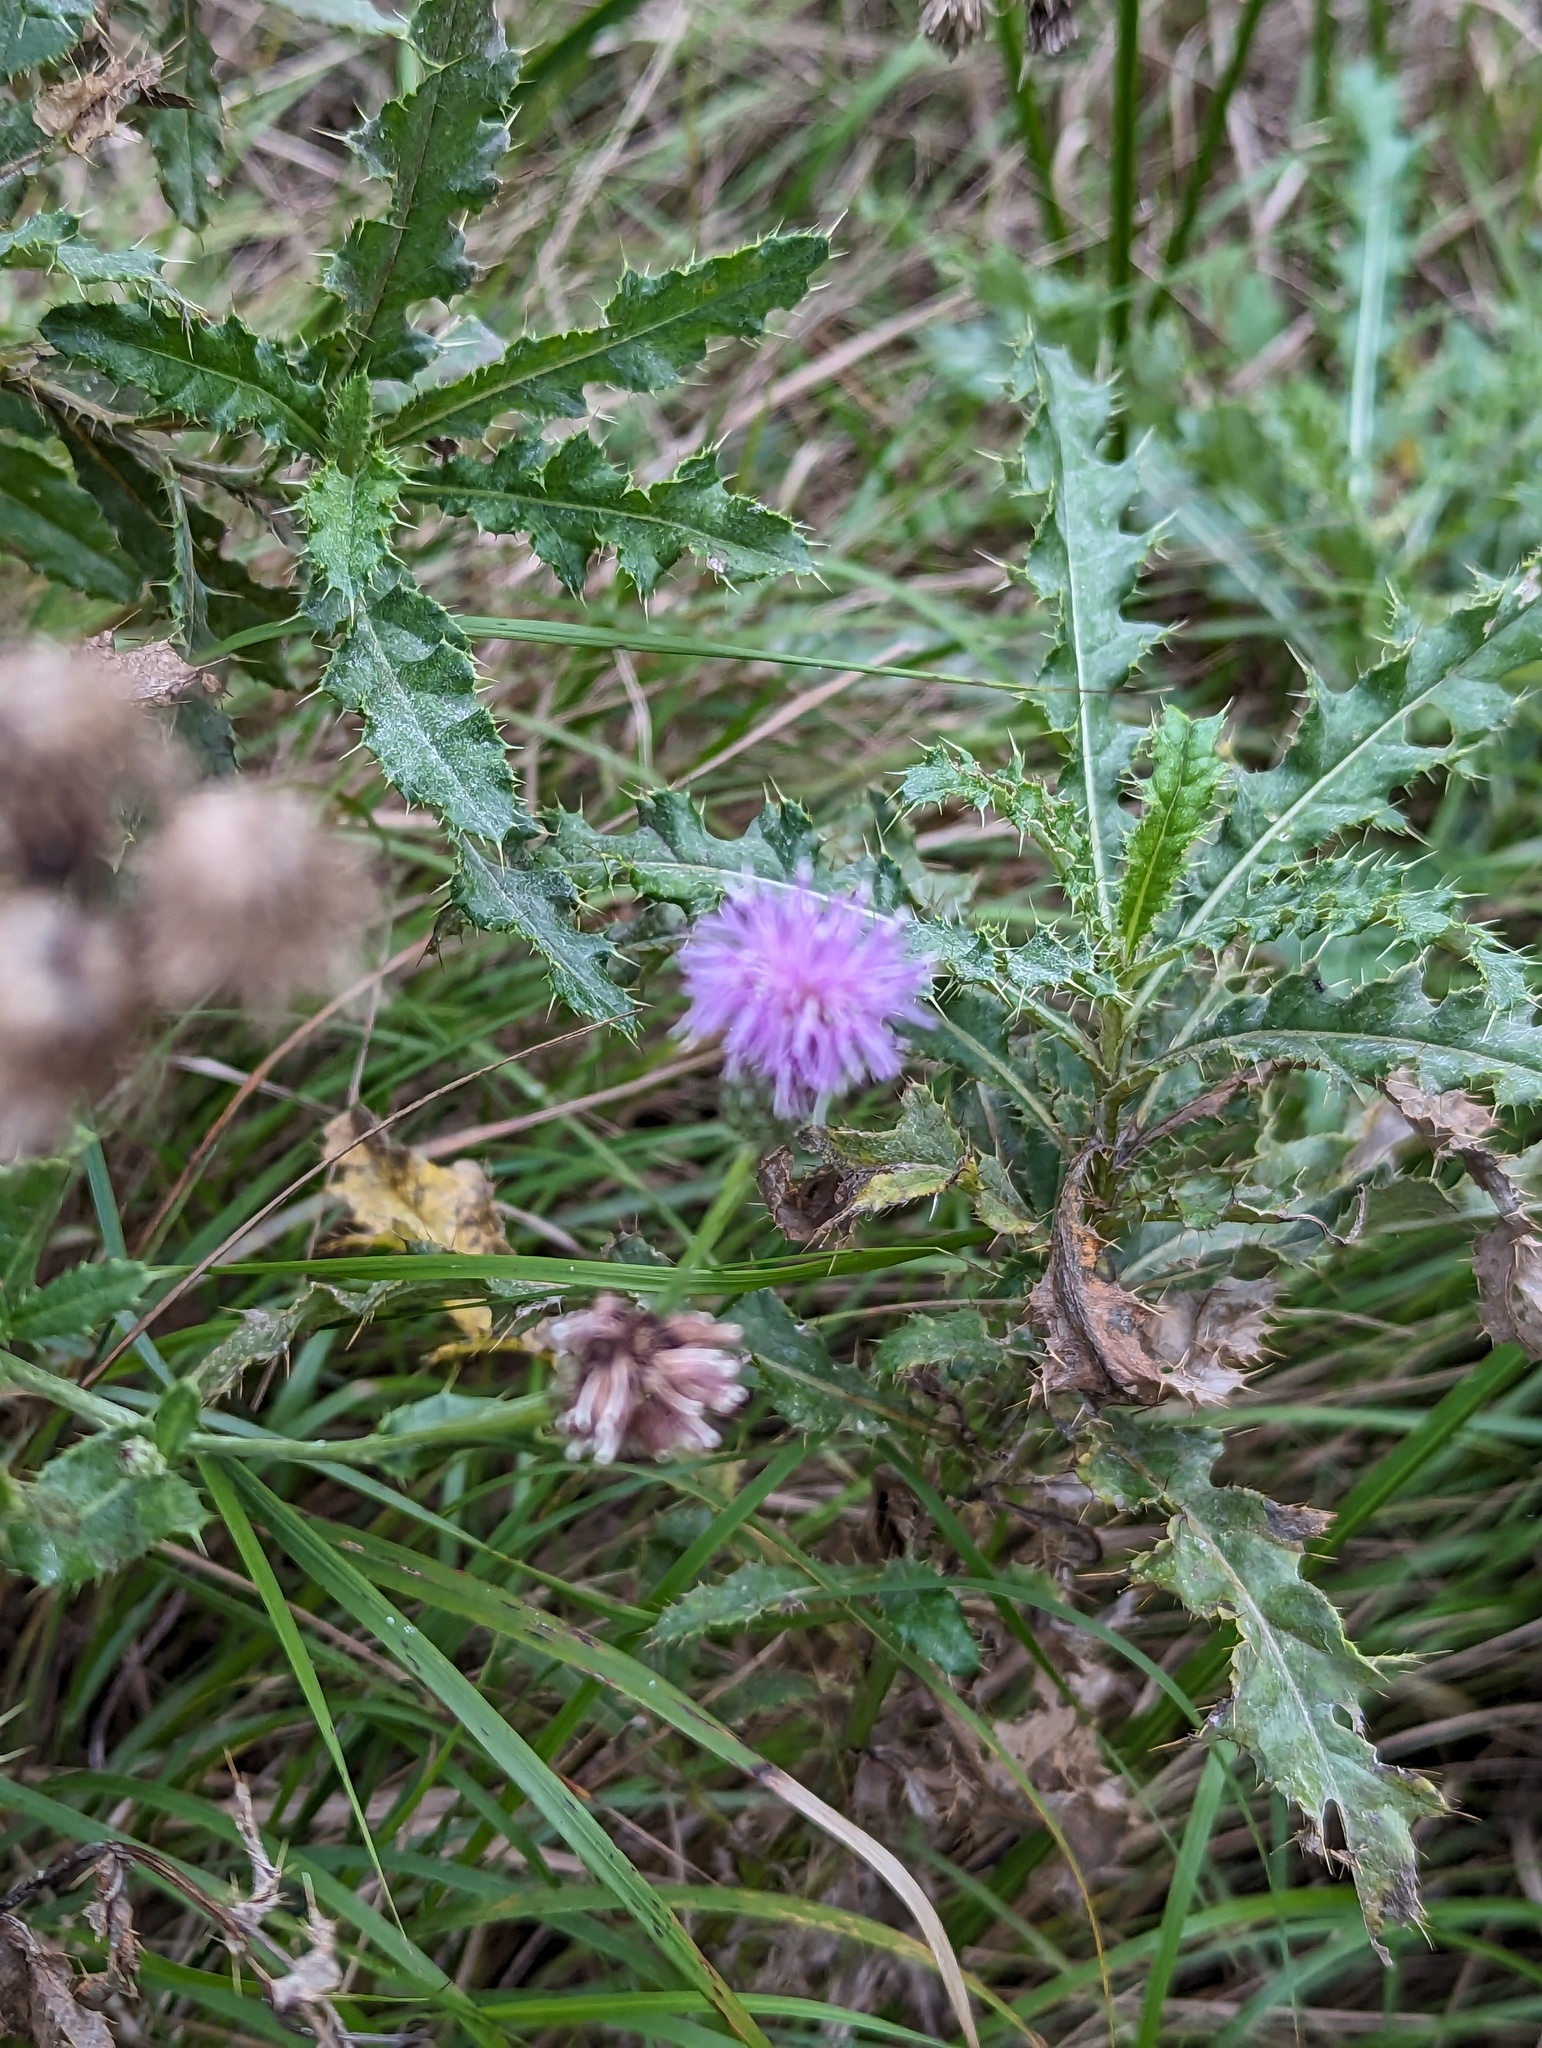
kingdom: Plantae
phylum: Tracheophyta
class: Magnoliopsida
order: Asterales
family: Asteraceae
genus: Cirsium
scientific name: Cirsium arvense
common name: Creeping thistle
